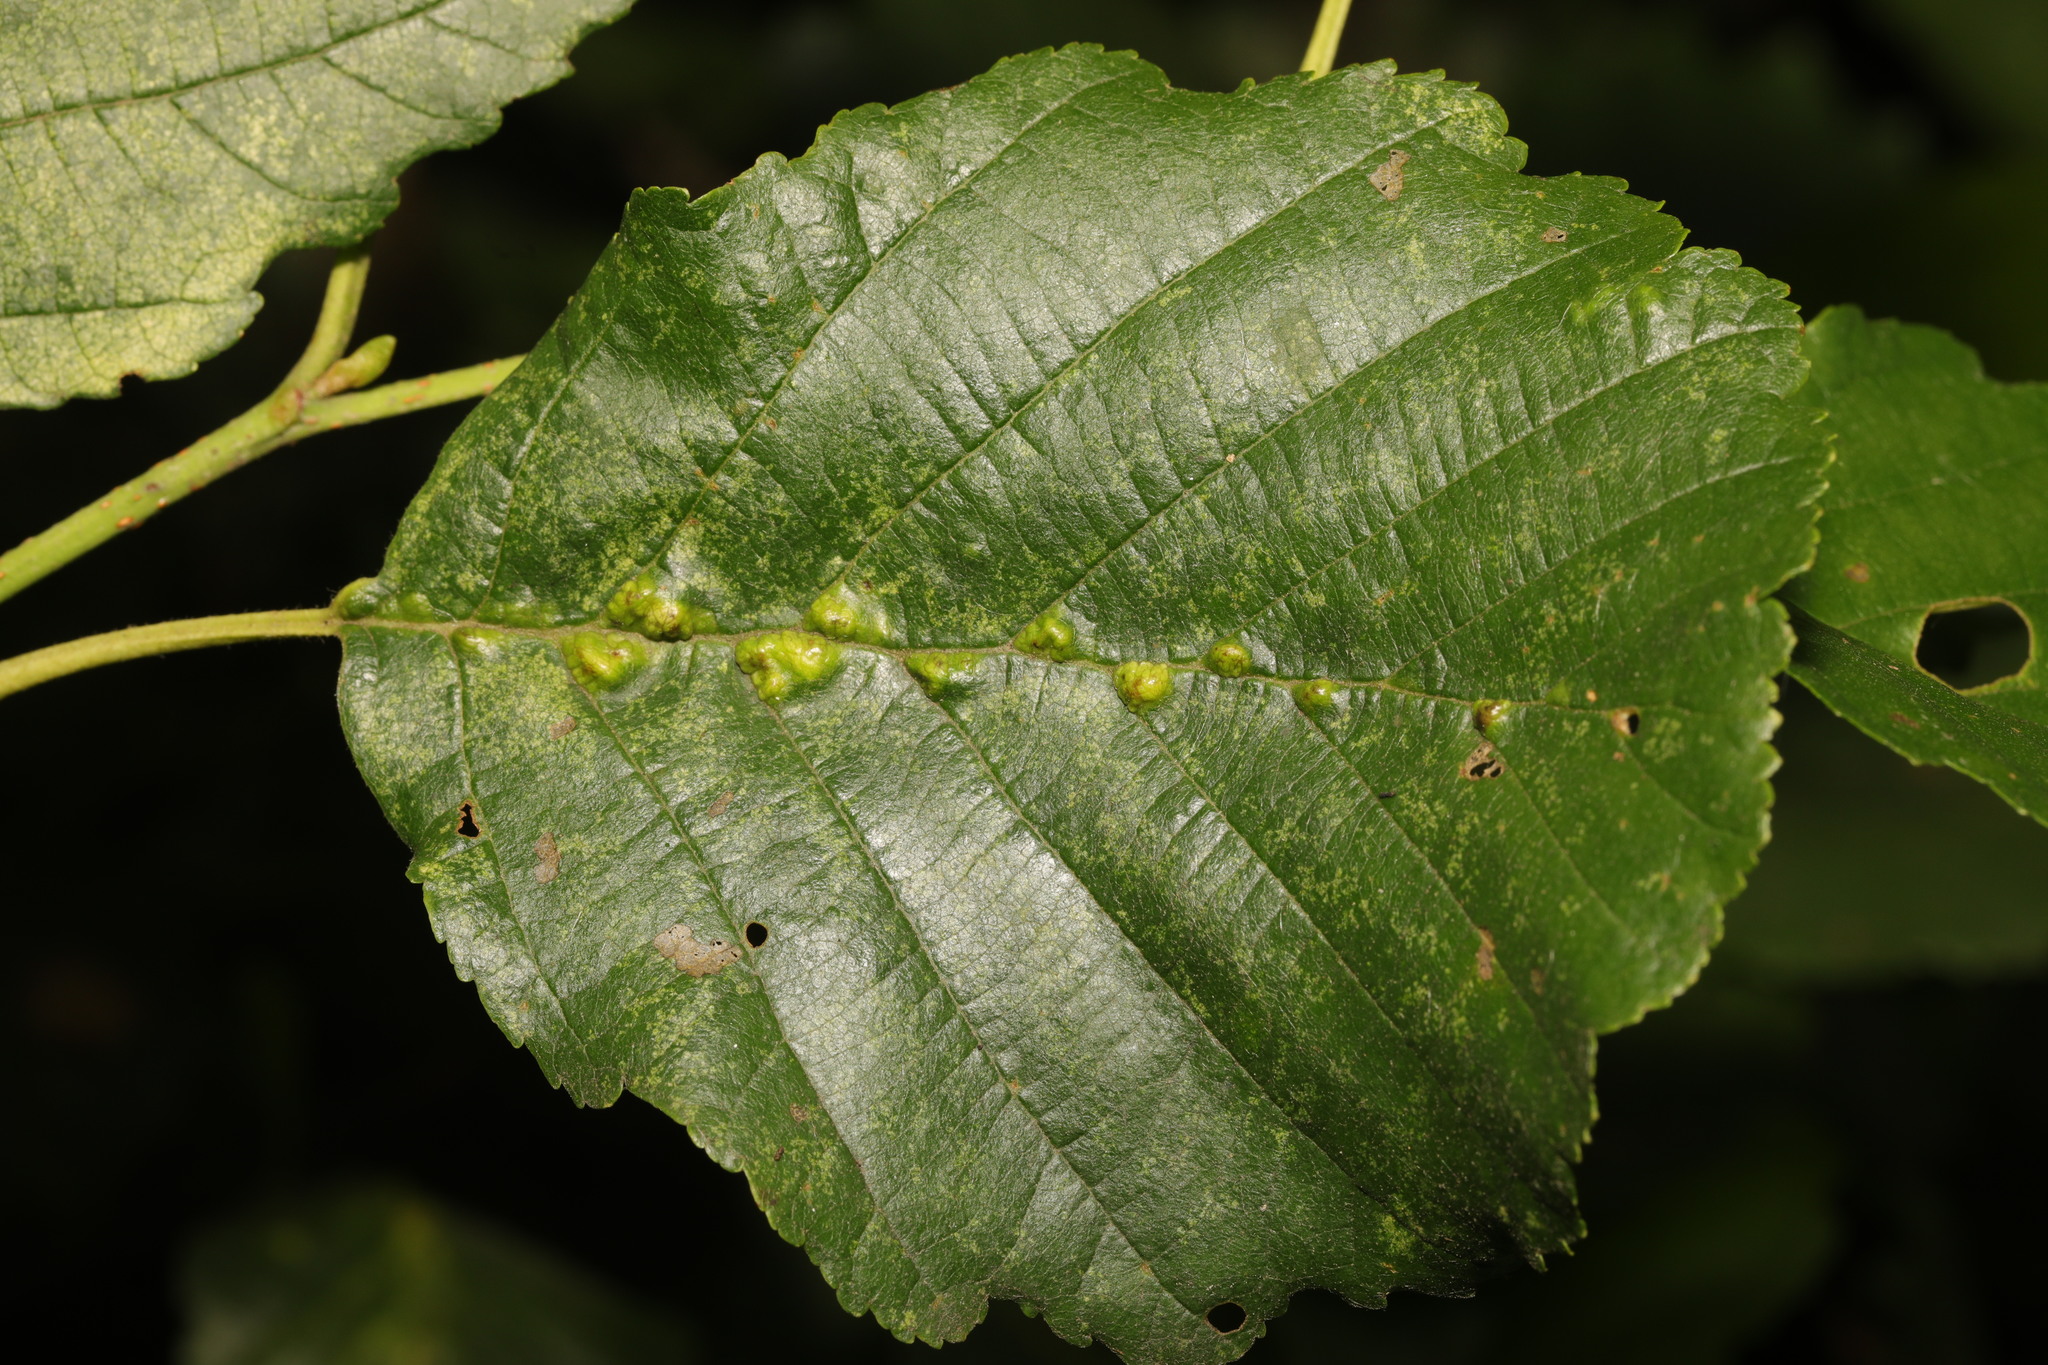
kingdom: Animalia
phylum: Arthropoda
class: Arachnida
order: Trombidiformes
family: Eriophyidae
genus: Eriophyes
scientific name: Eriophyes inangulis
